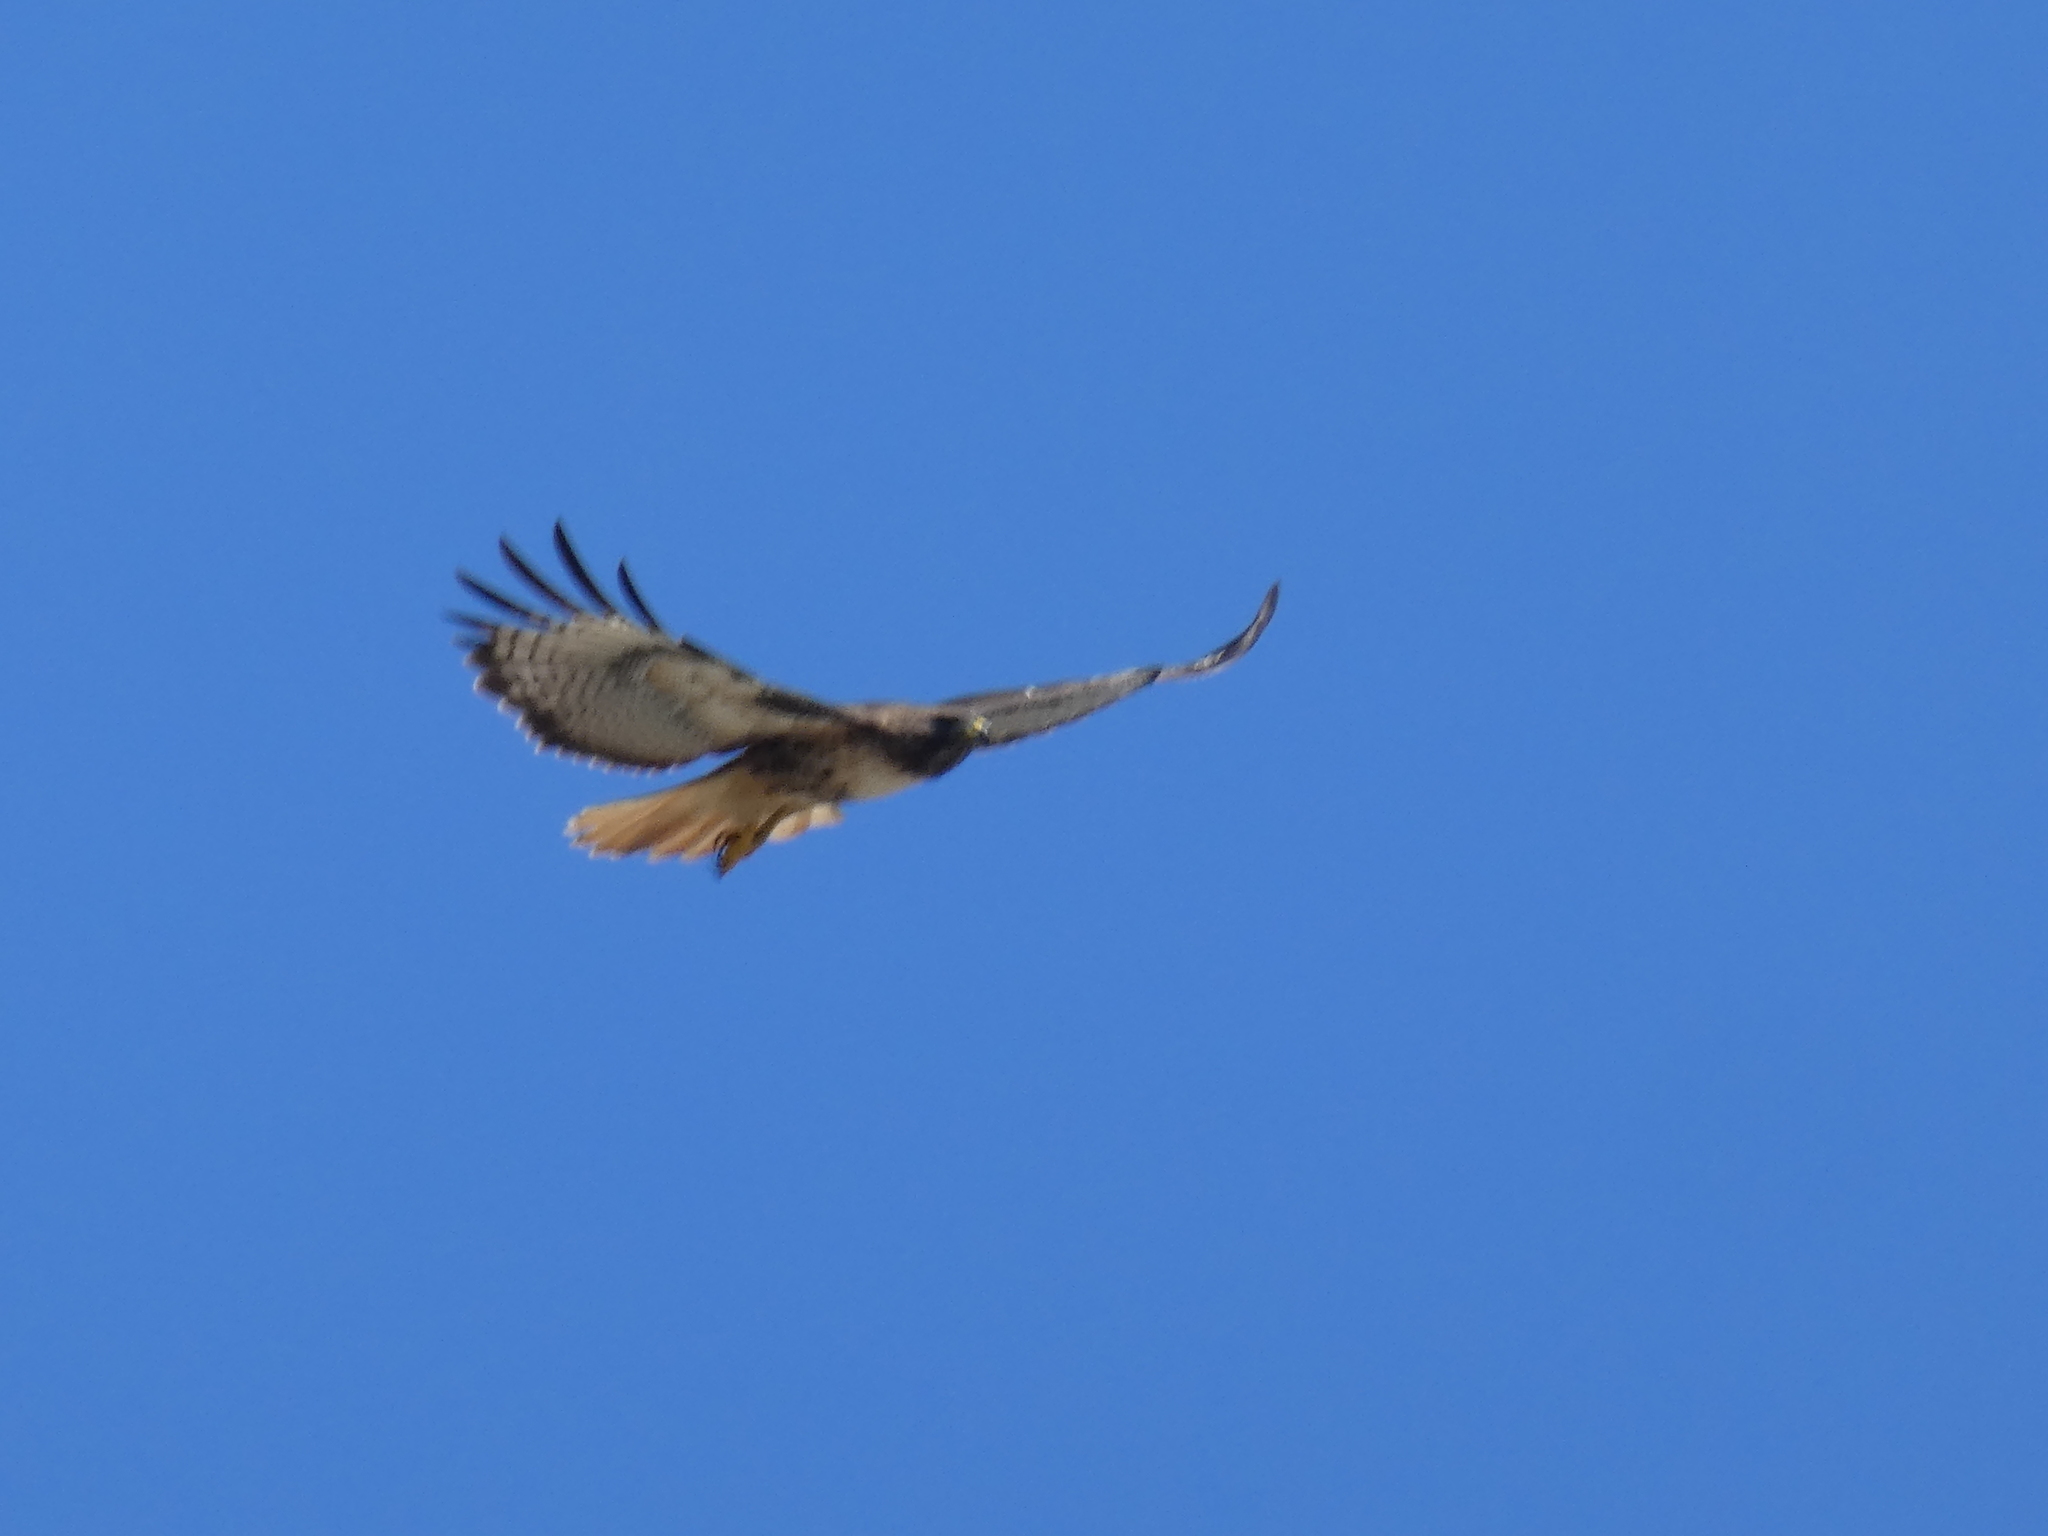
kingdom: Animalia
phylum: Chordata
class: Aves
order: Accipitriformes
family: Accipitridae
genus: Buteo
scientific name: Buteo jamaicensis
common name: Red-tailed hawk
